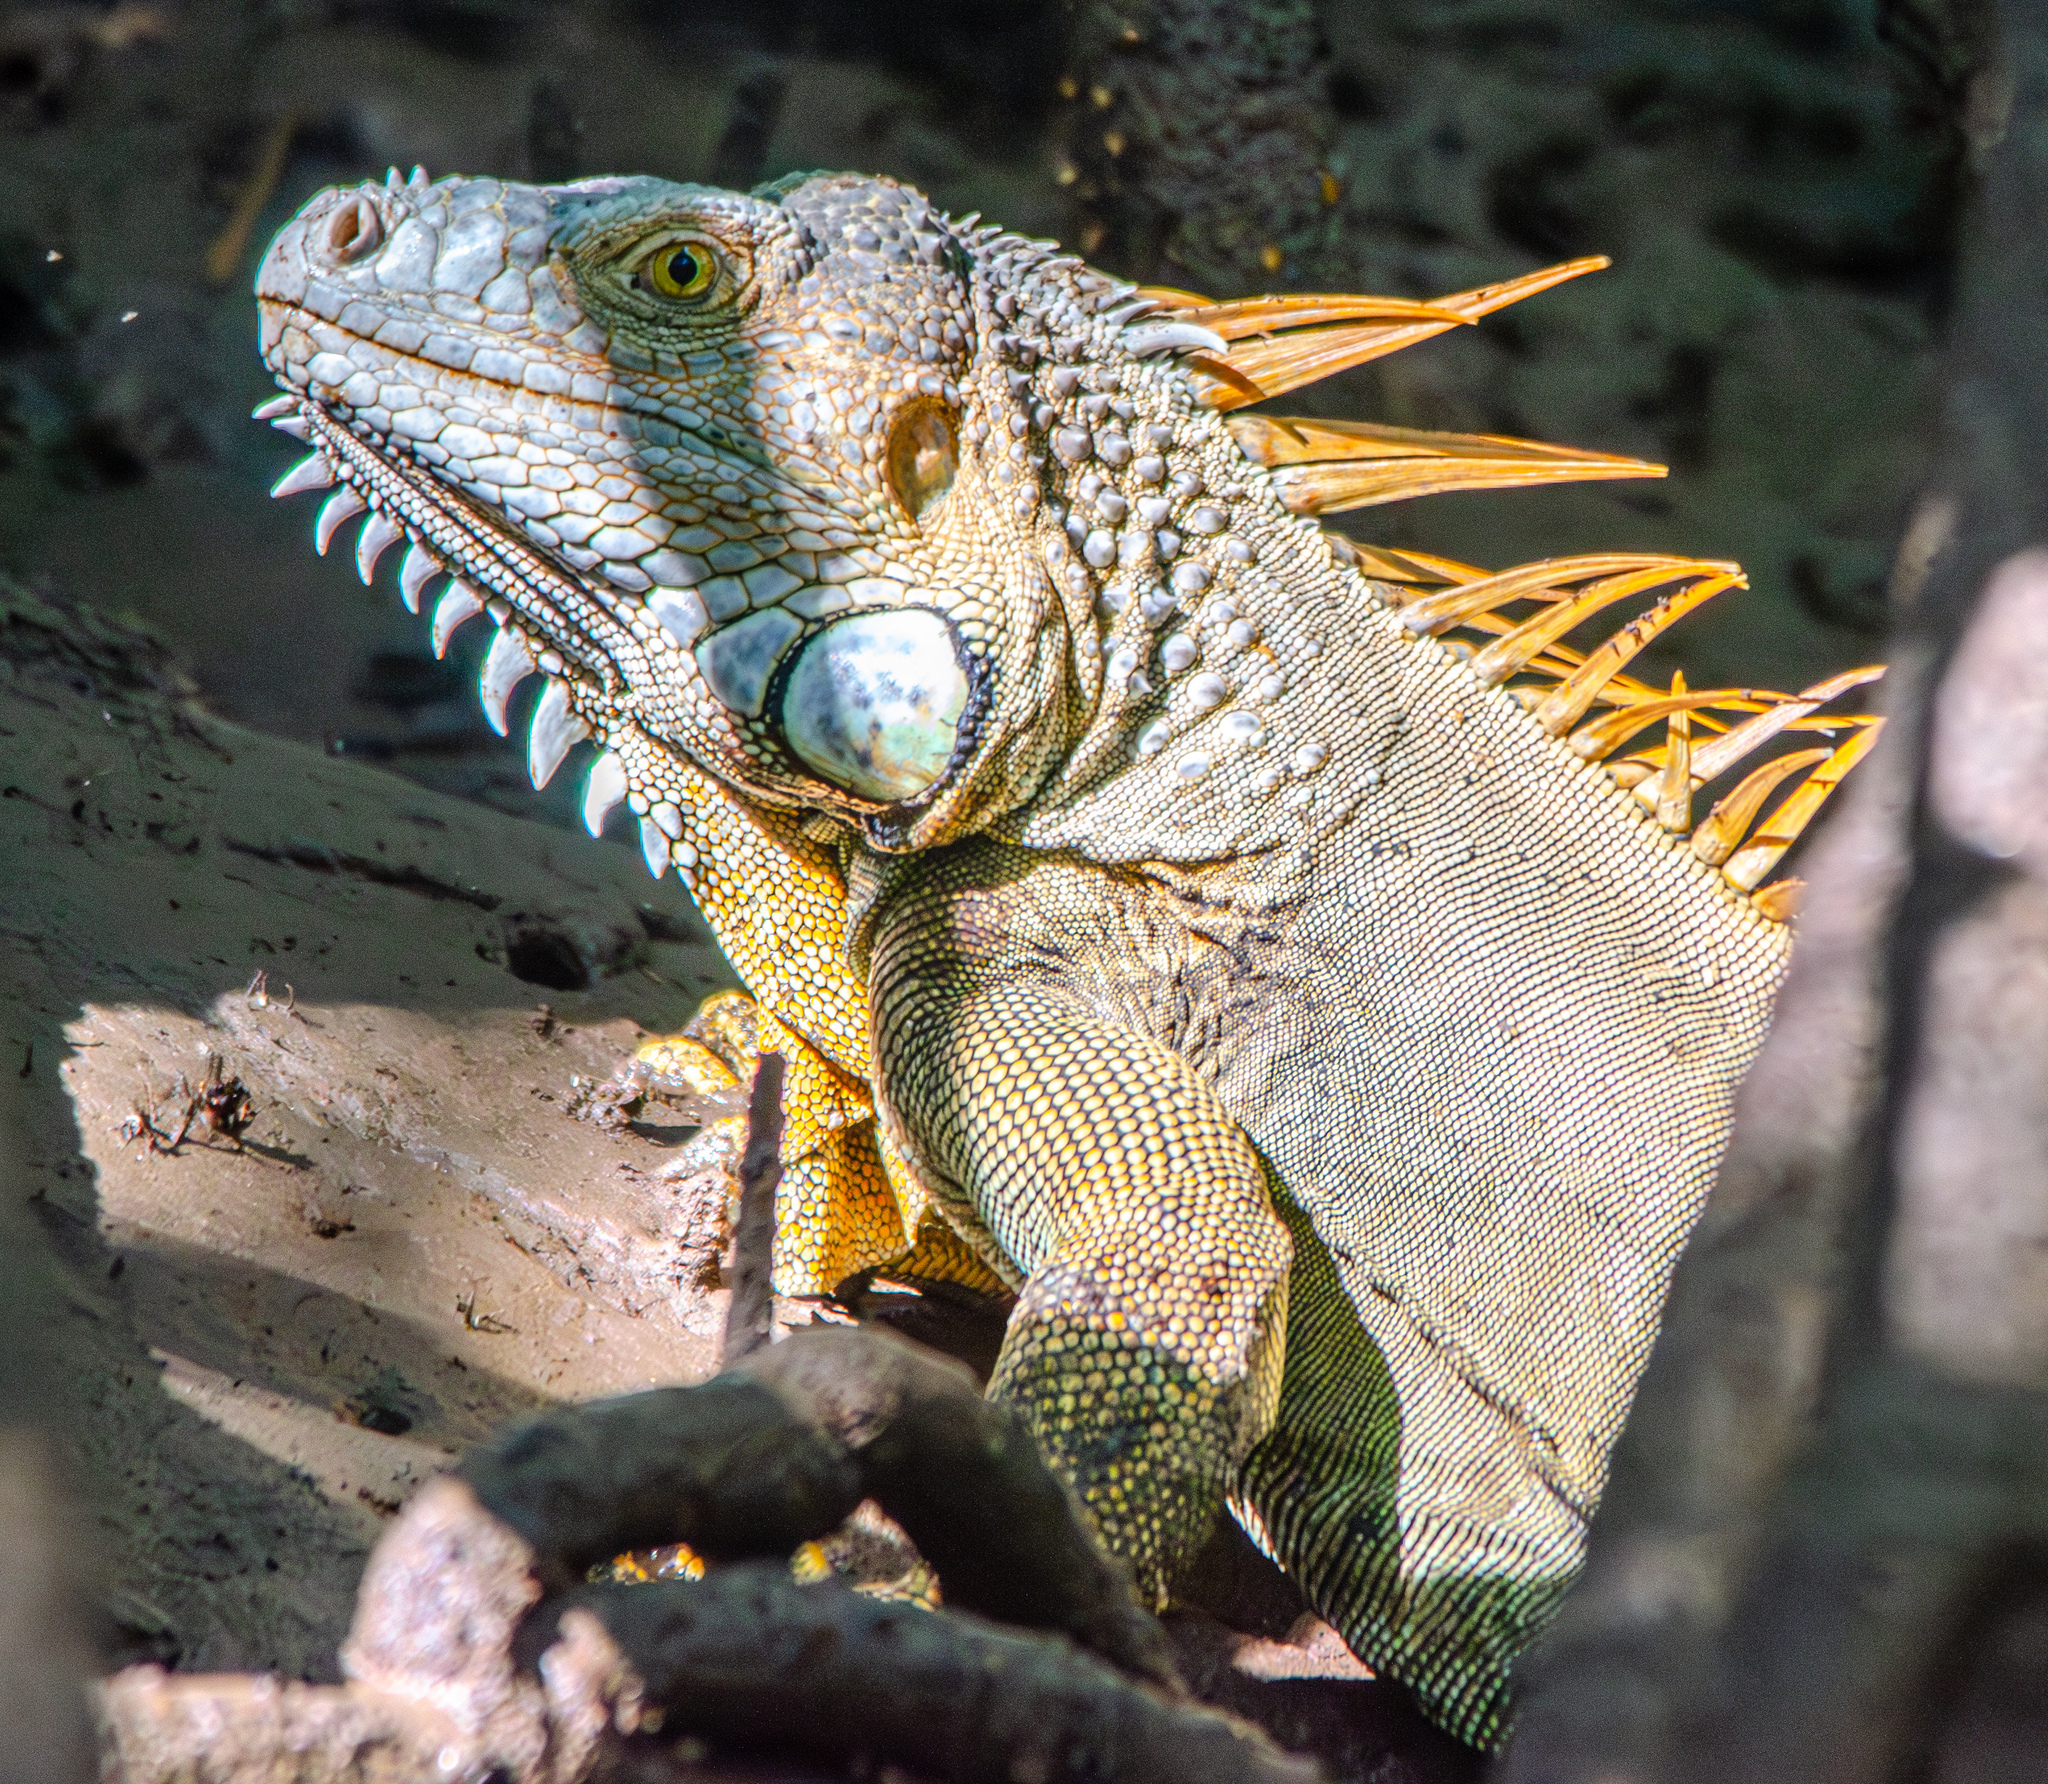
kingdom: Animalia
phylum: Chordata
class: Squamata
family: Iguanidae
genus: Iguana
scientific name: Iguana iguana
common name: Green iguana
